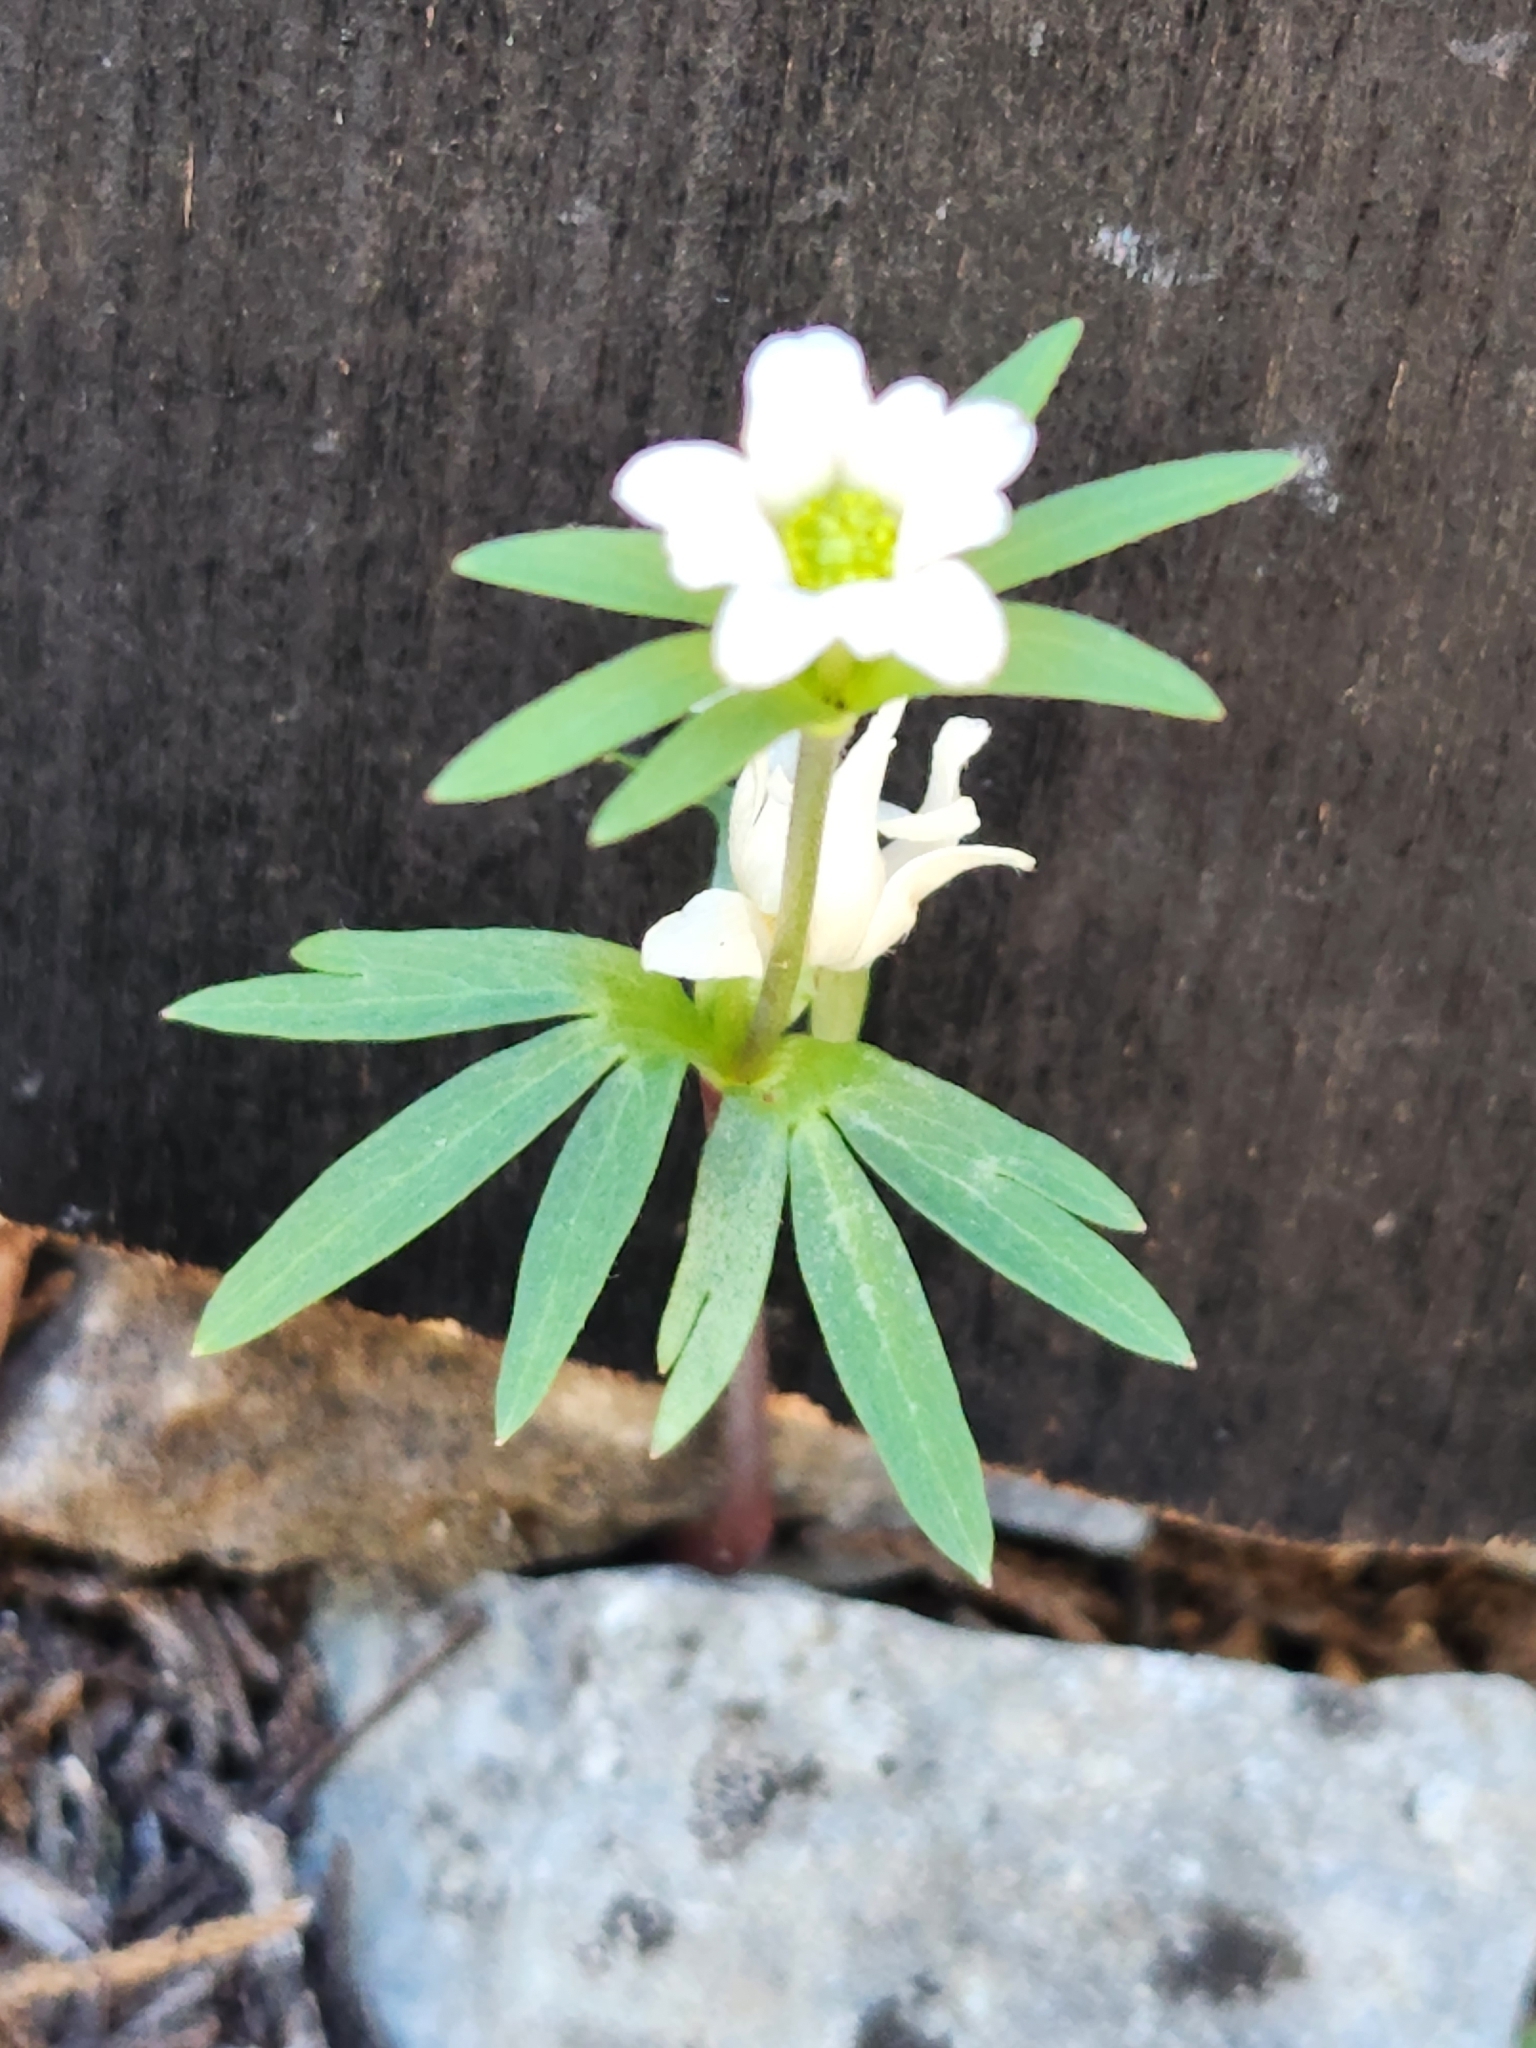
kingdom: Plantae
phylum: Tracheophyta
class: Magnoliopsida
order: Ranunculales
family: Ranunculaceae
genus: Anemone
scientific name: Anemone edwardsiana
